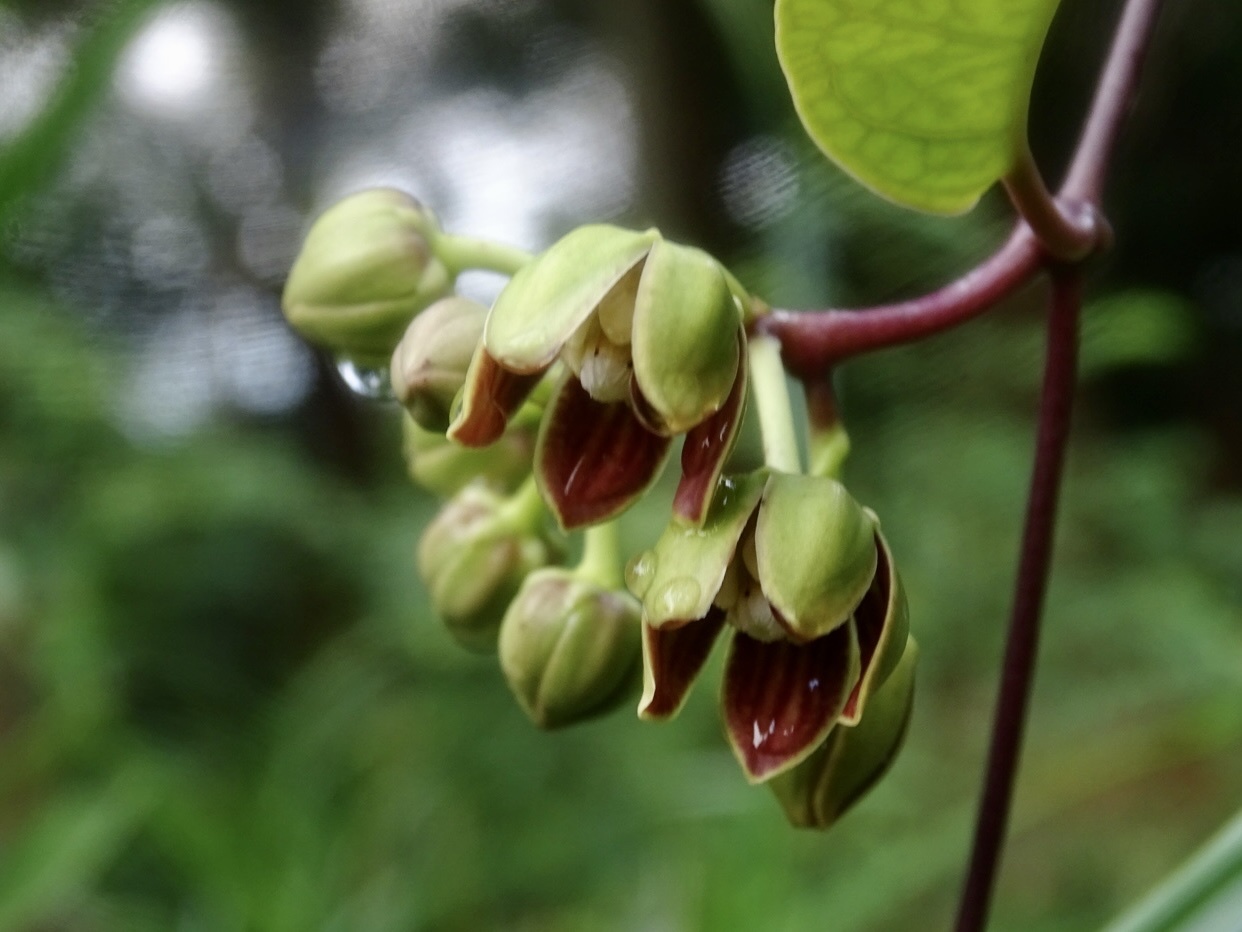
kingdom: Plantae
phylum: Tracheophyta
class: Magnoliopsida
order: Gentianales
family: Apocynaceae
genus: Cynanchum
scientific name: Cynanchum graphistemmatoides
